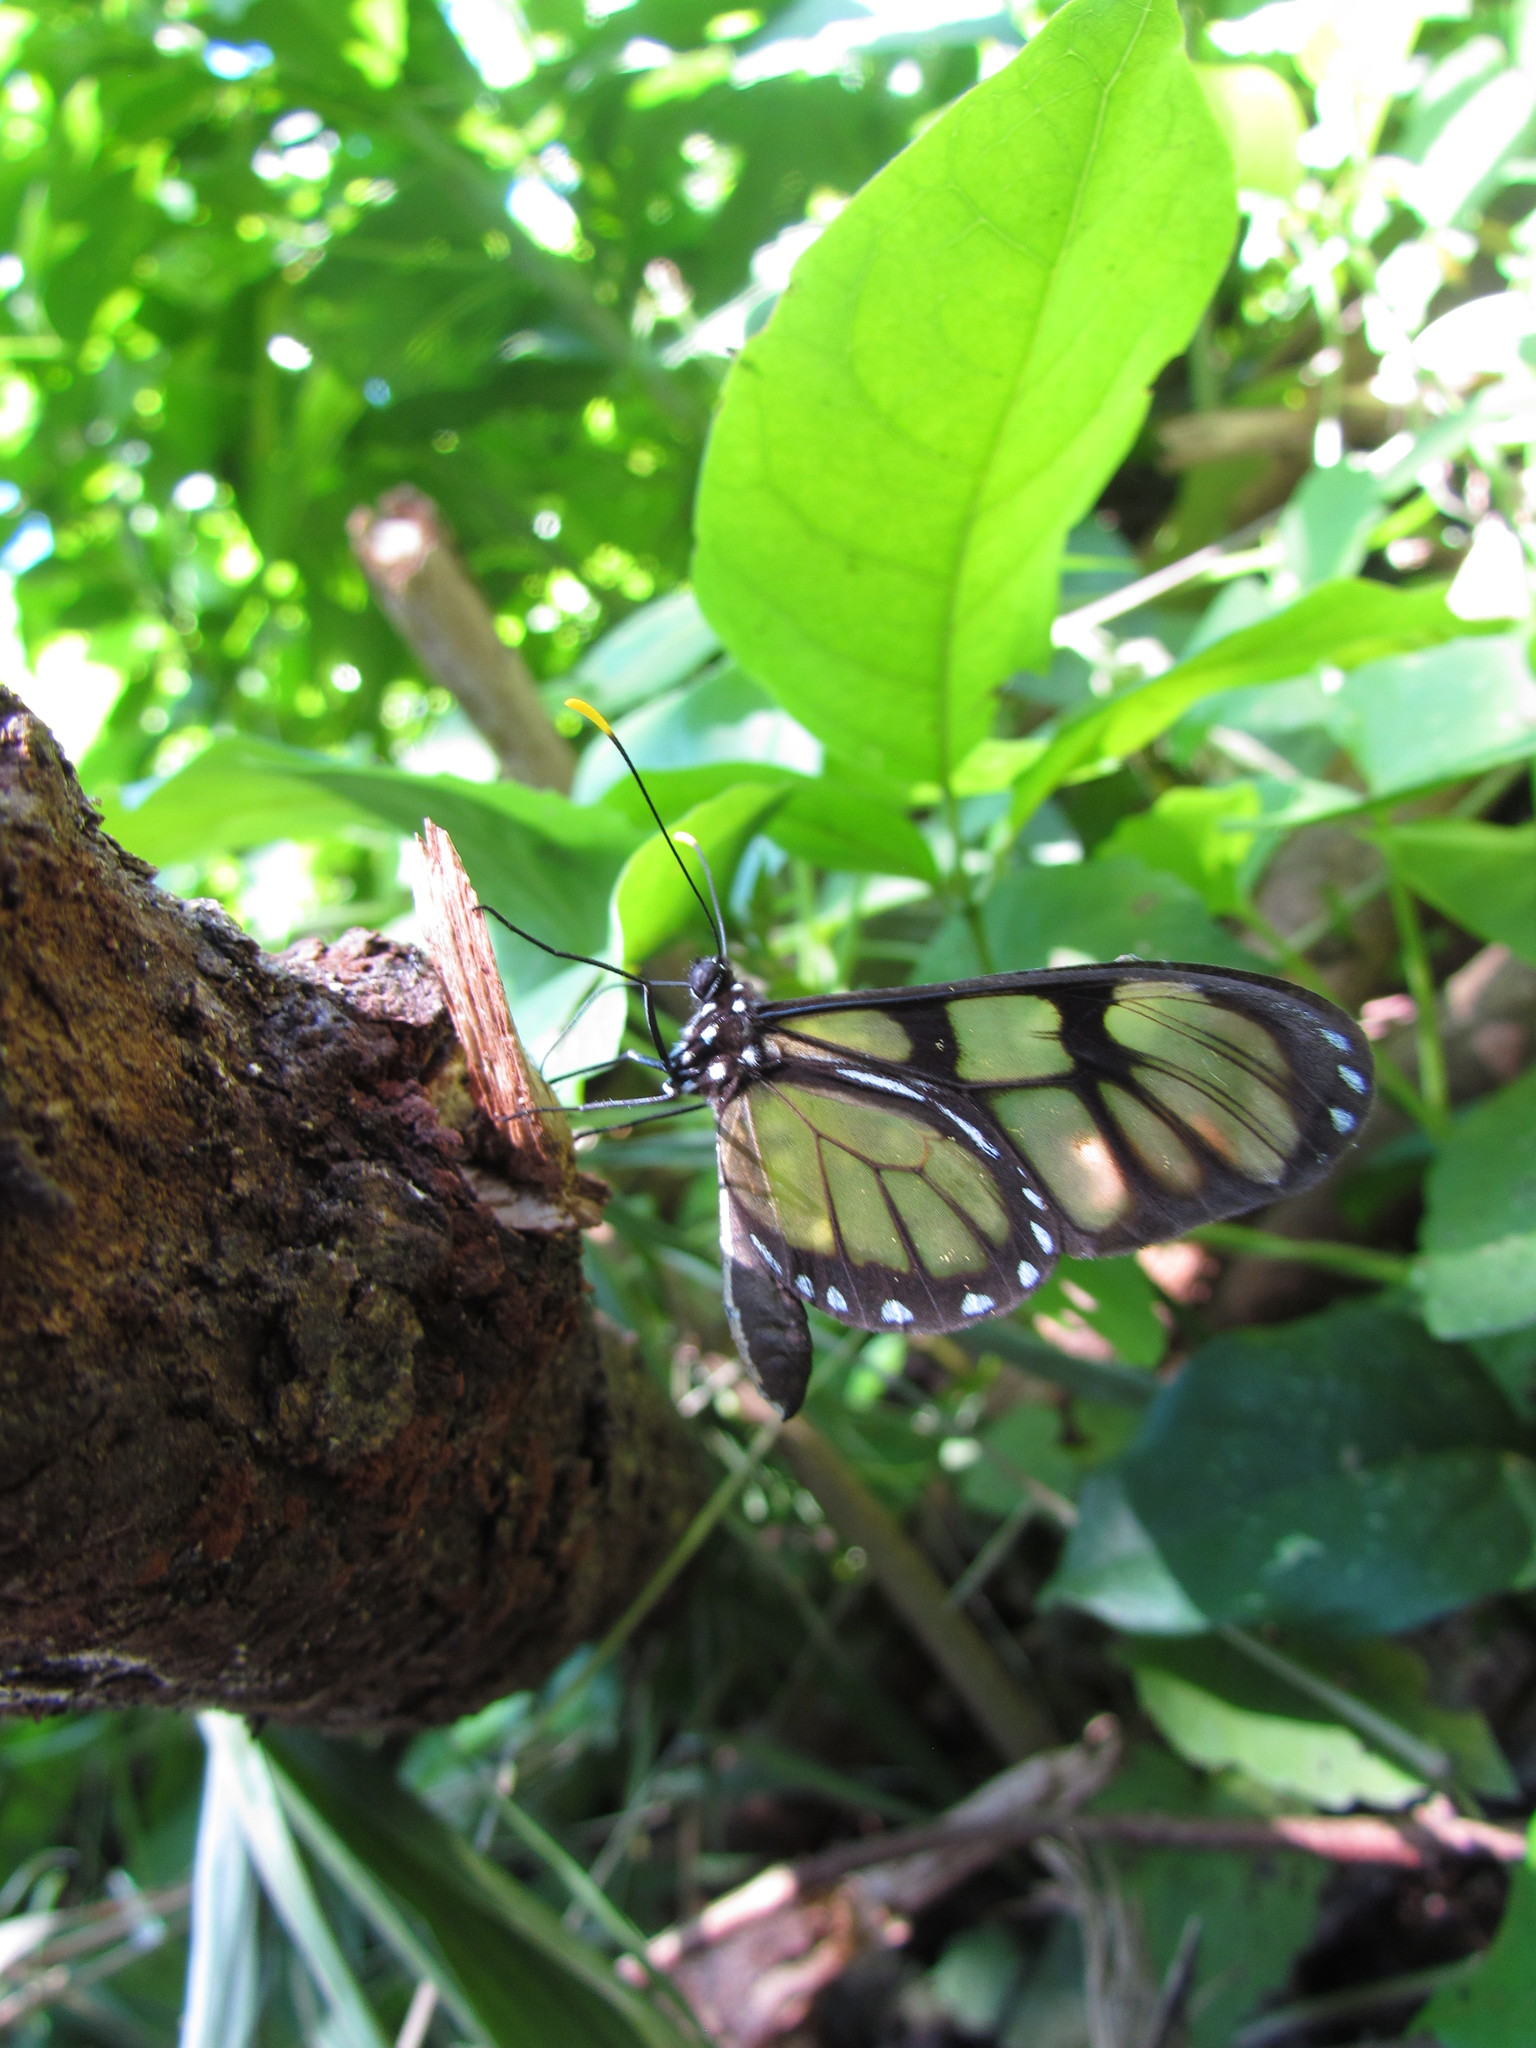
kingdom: Animalia
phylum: Arthropoda
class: Insecta
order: Lepidoptera
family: Nymphalidae
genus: Dircenna
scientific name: Dircenna dero
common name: Dero clearwing
